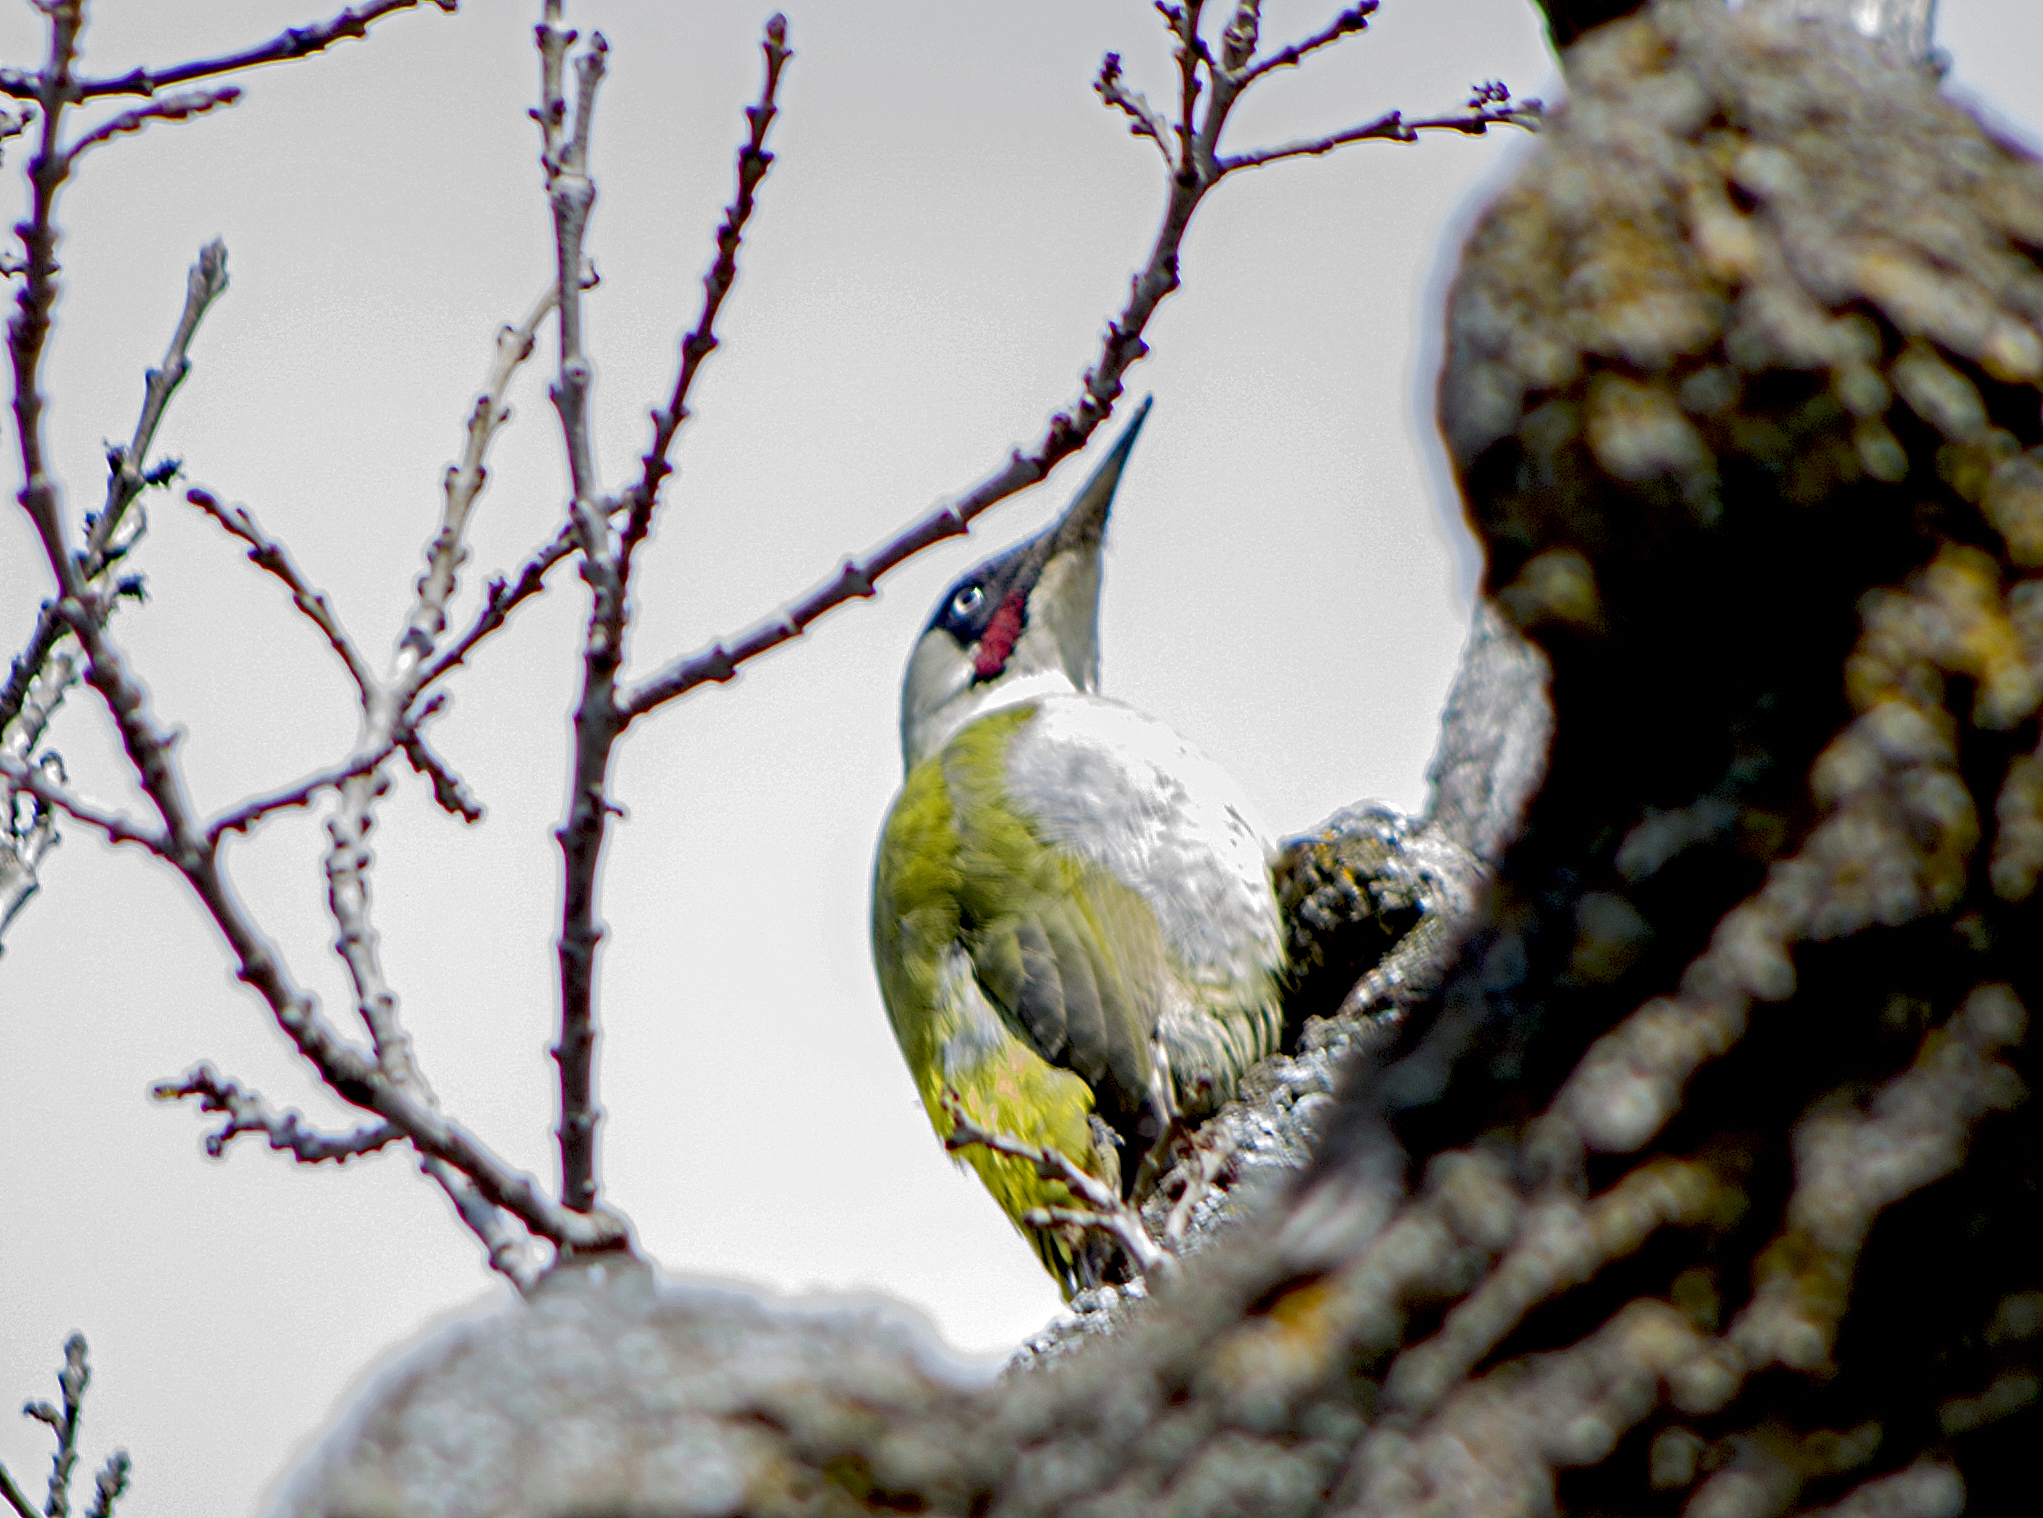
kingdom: Animalia
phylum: Chordata
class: Aves
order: Piciformes
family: Picidae
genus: Picus
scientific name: Picus viridis
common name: European green woodpecker
